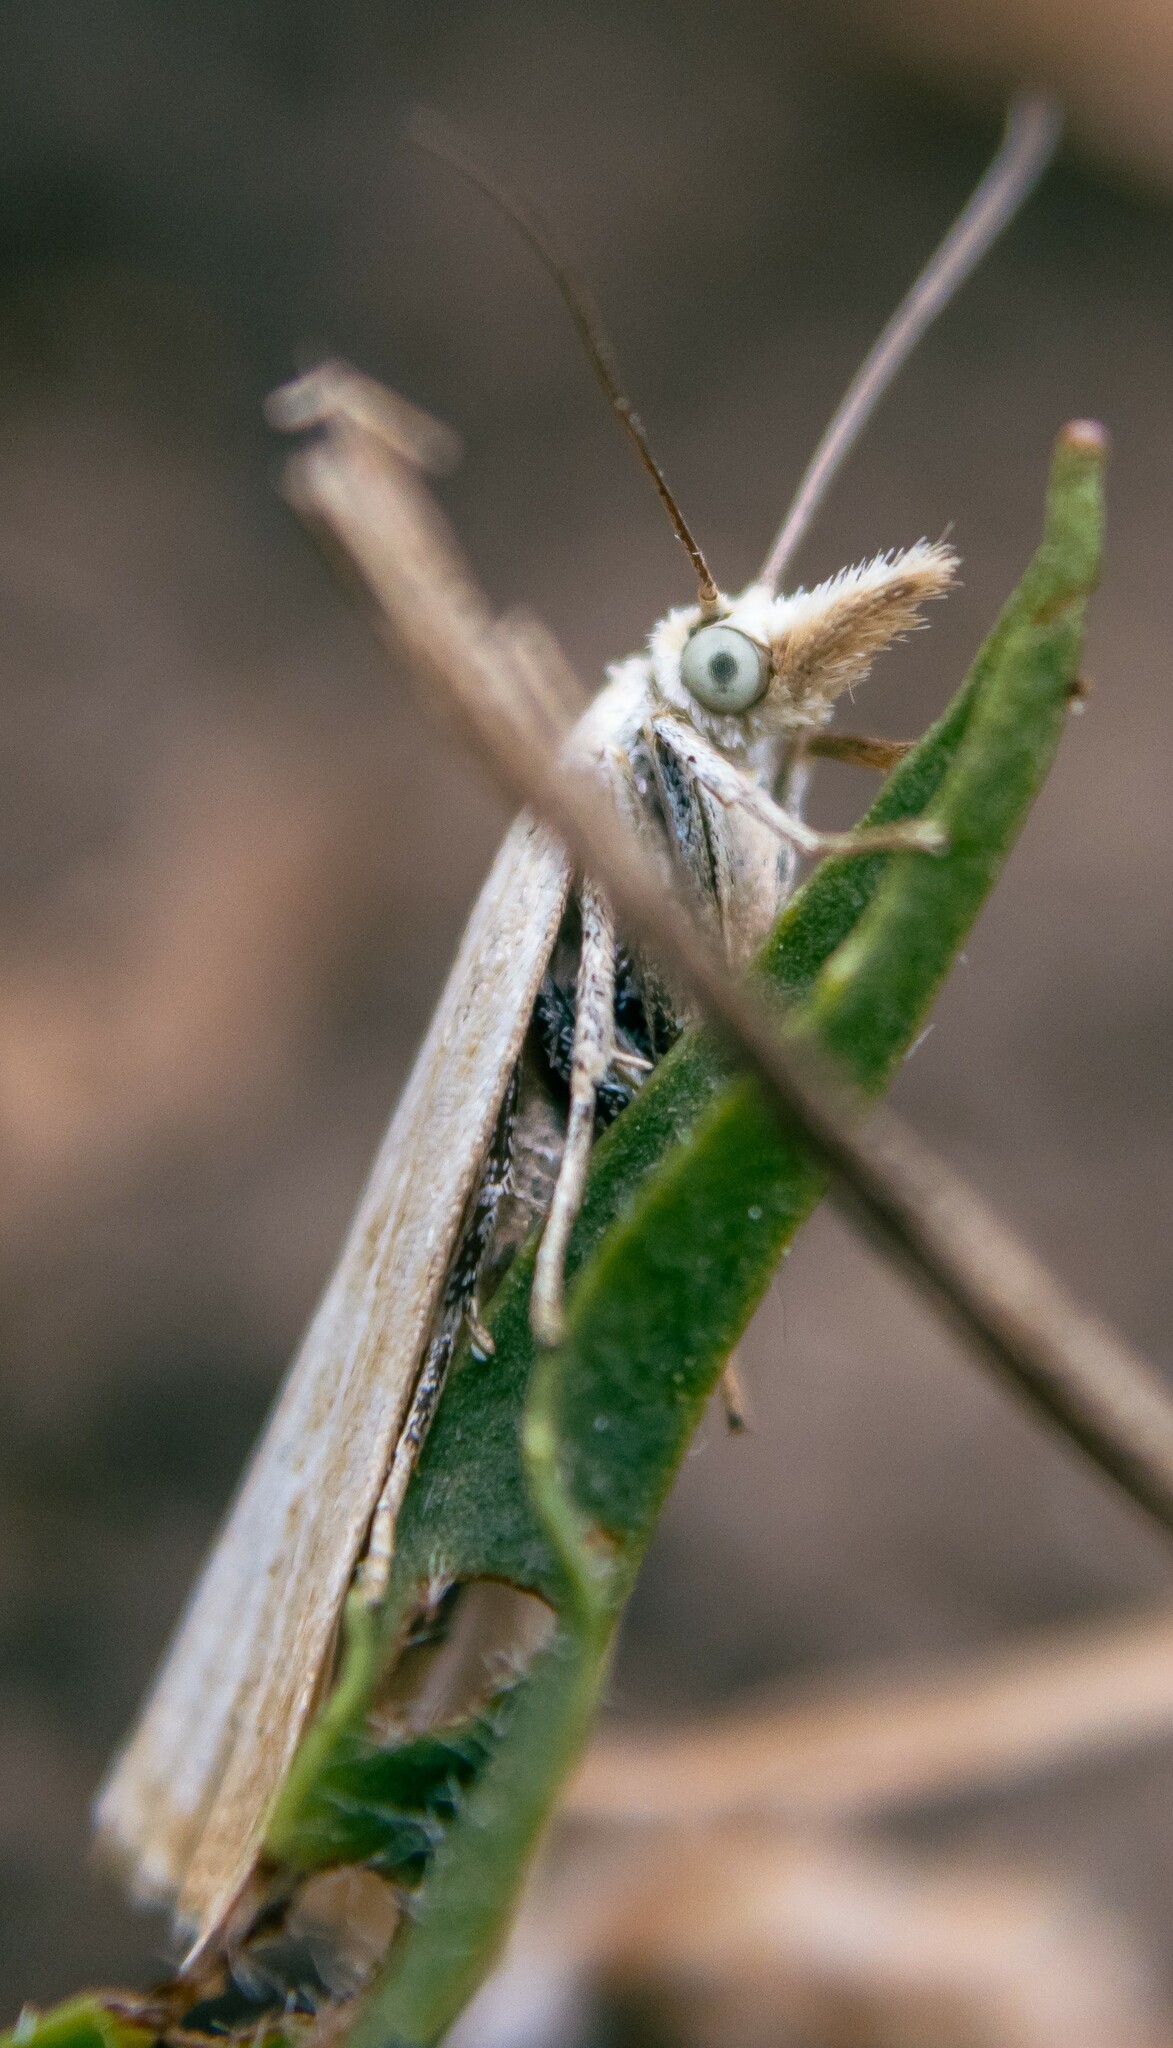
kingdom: Animalia
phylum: Arthropoda
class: Insecta
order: Lepidoptera
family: Crambidae
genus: Chrysoteuchia
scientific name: Chrysoteuchia culmella
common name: Garden grass-veneer
